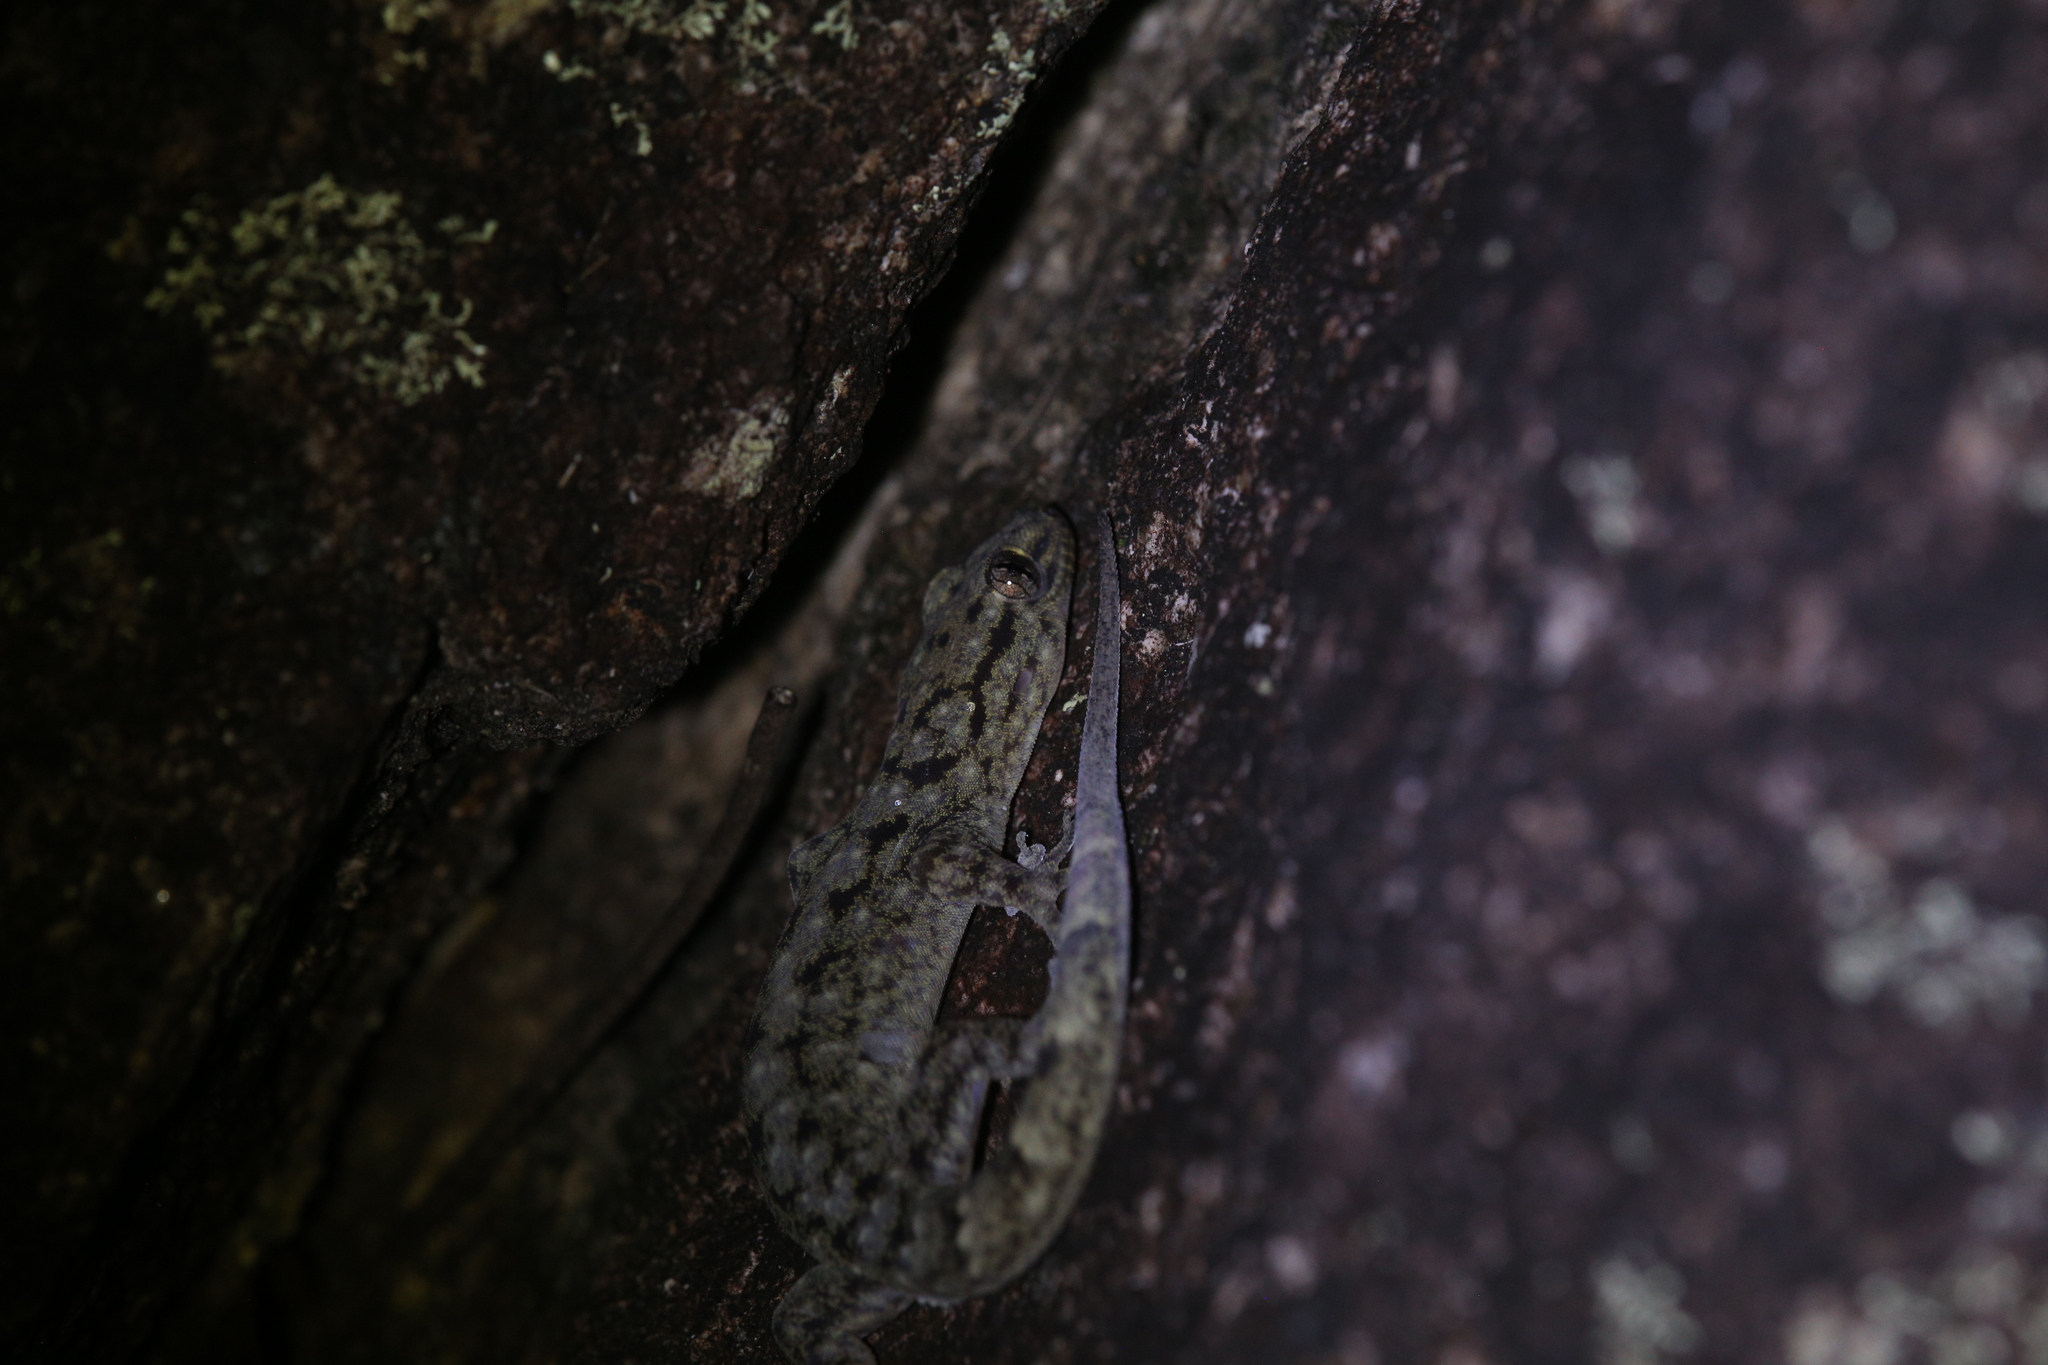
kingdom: Animalia
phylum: Chordata
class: Squamata
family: Gekkonidae
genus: Gehyra
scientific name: Gehyra dubia
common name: Dubious dtella
